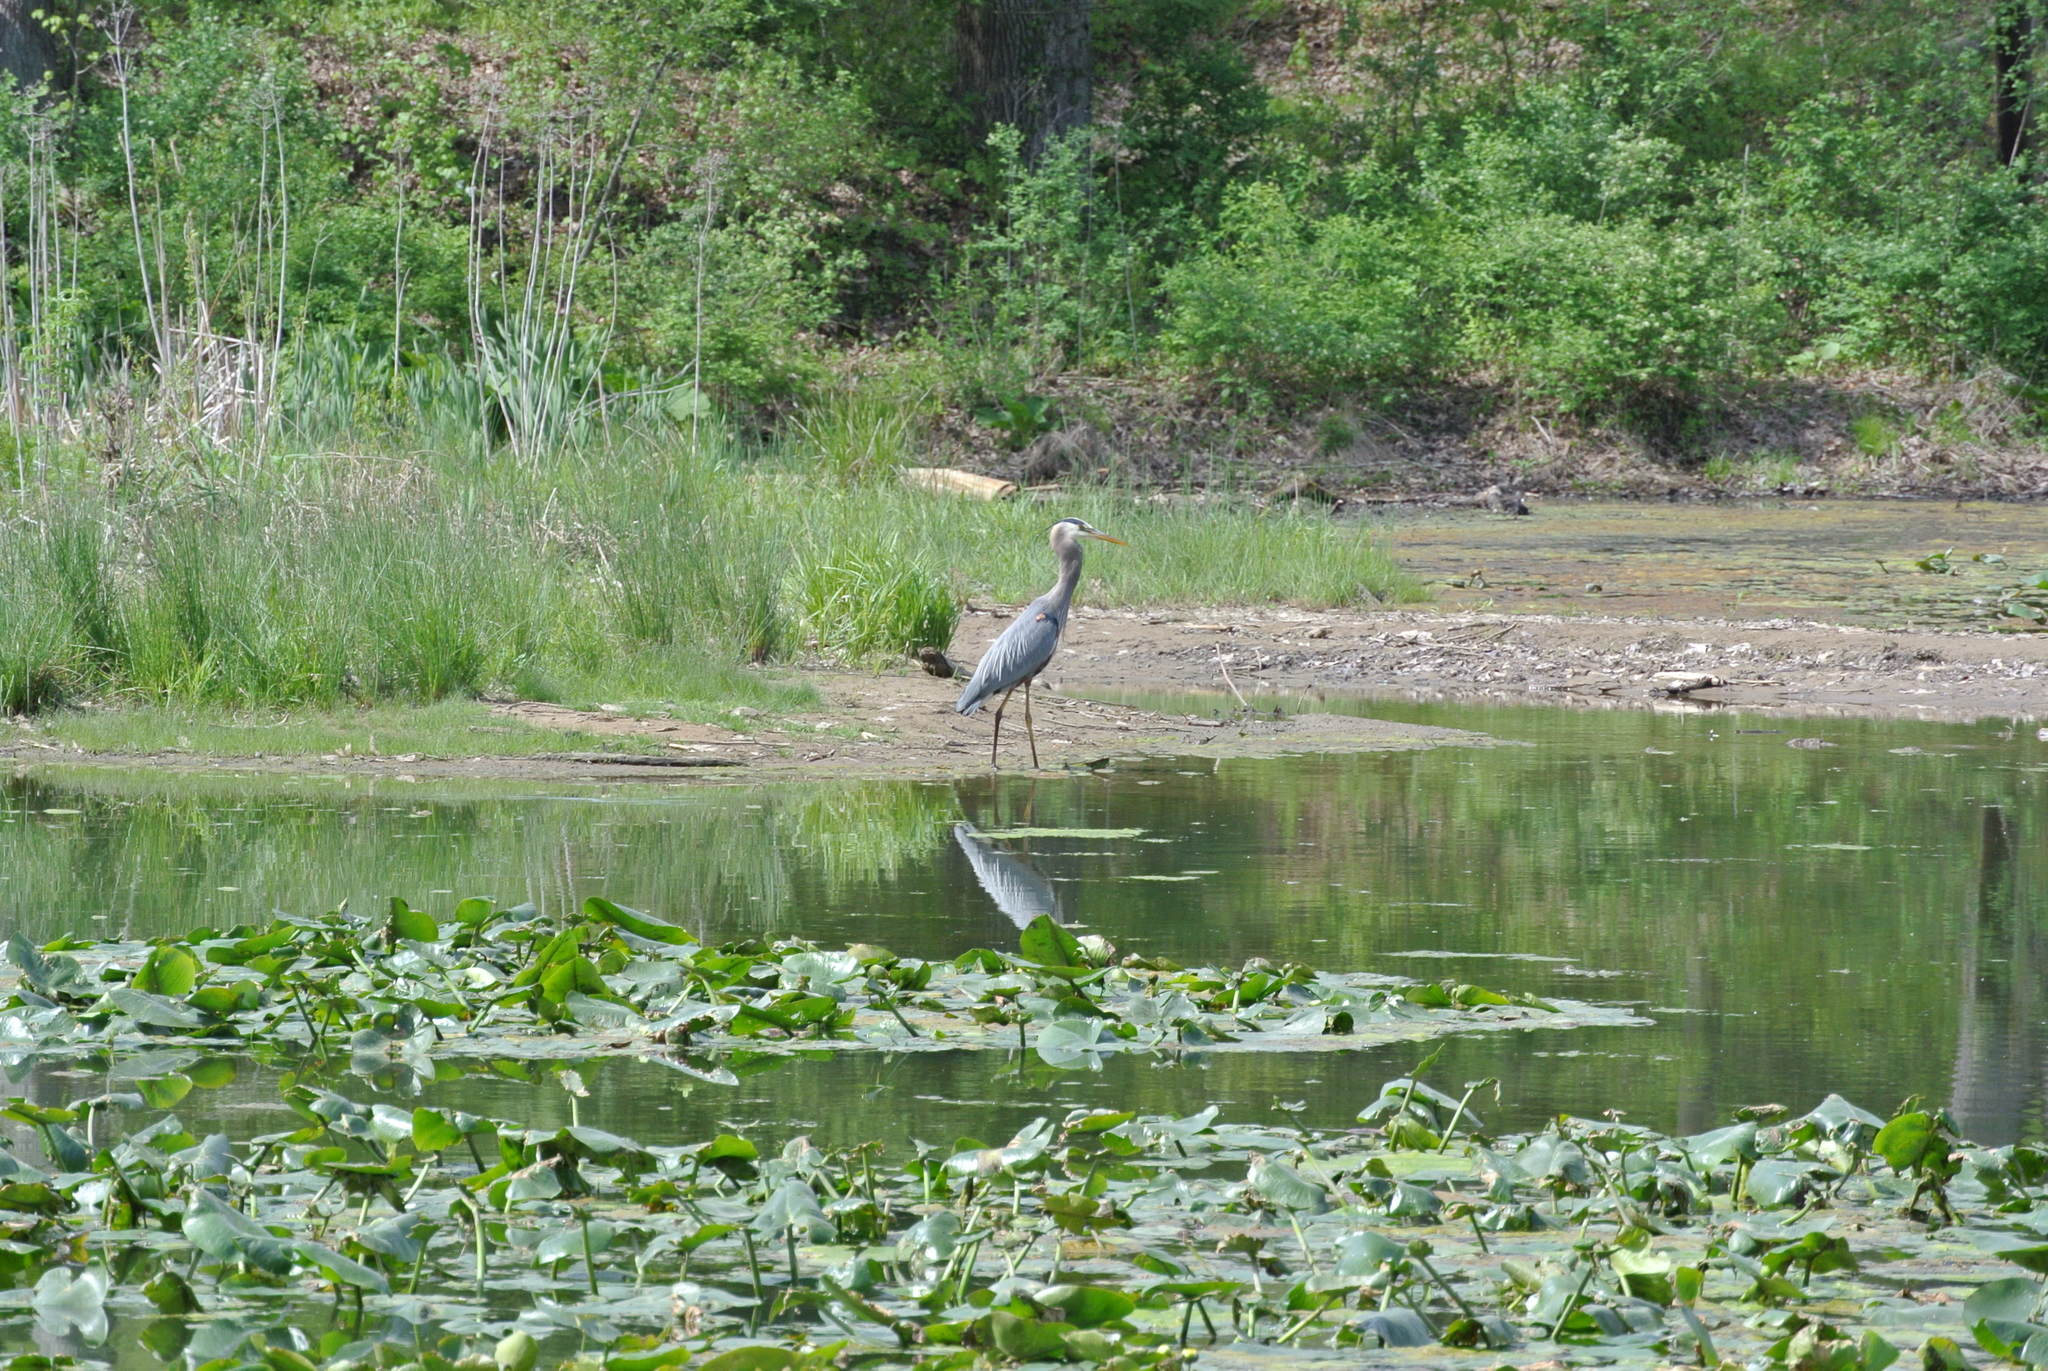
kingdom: Animalia
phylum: Chordata
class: Aves
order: Pelecaniformes
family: Ardeidae
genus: Ardea
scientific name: Ardea herodias
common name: Great blue heron
